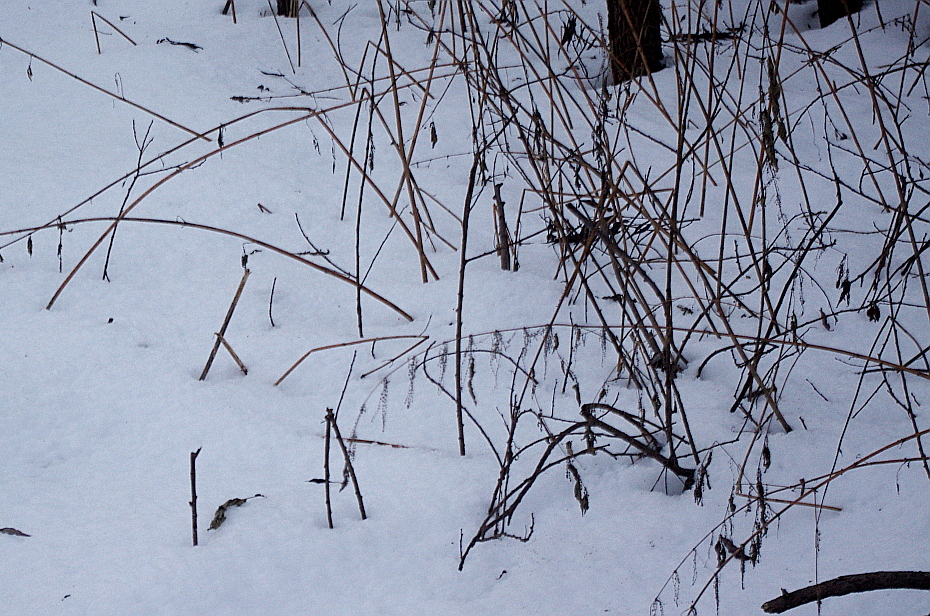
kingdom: Plantae
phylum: Tracheophyta
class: Magnoliopsida
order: Rosales
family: Urticaceae
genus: Urtica
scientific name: Urtica dioica
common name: Common nettle
